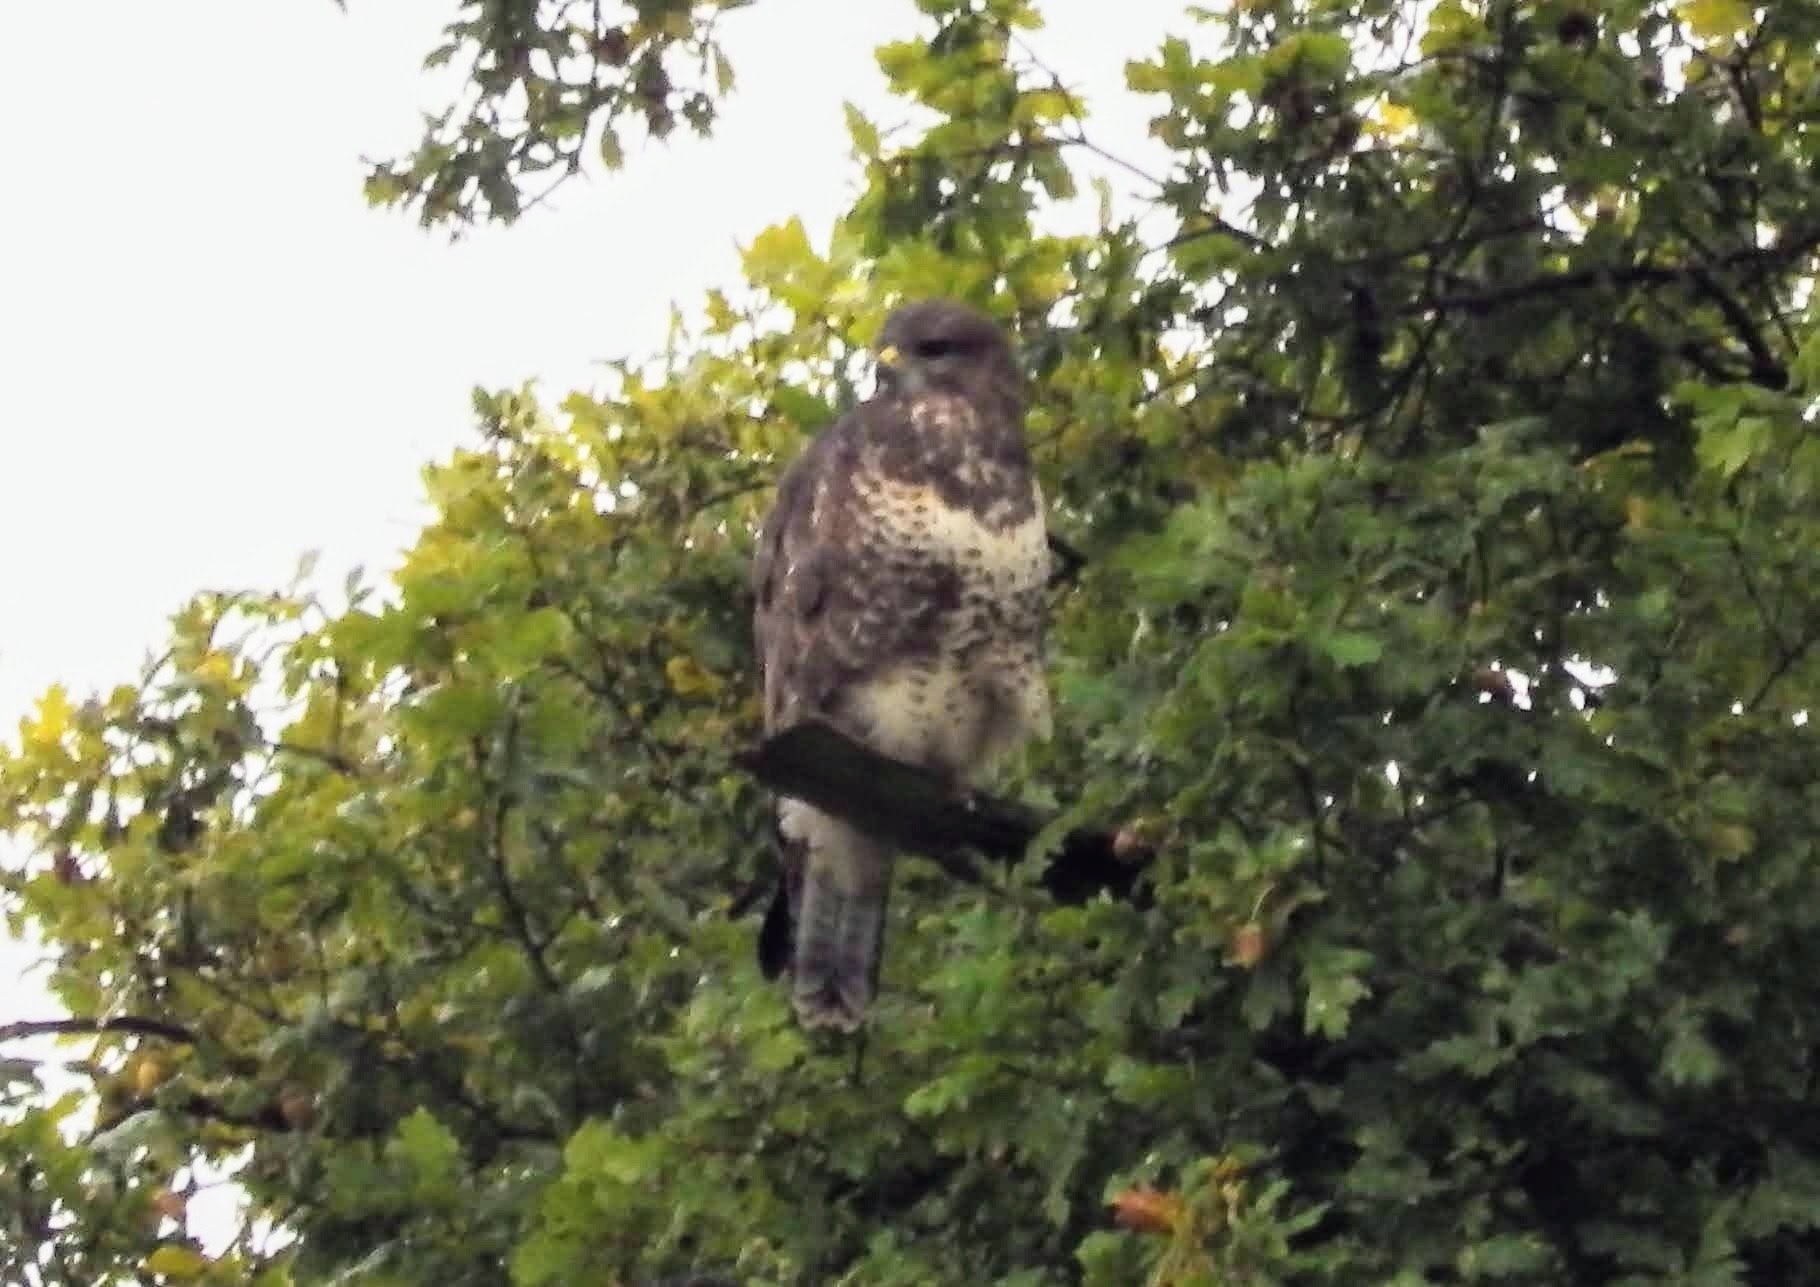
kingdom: Animalia
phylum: Chordata
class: Aves
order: Accipitriformes
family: Accipitridae
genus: Buteo
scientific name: Buteo buteo
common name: Common buzzard
